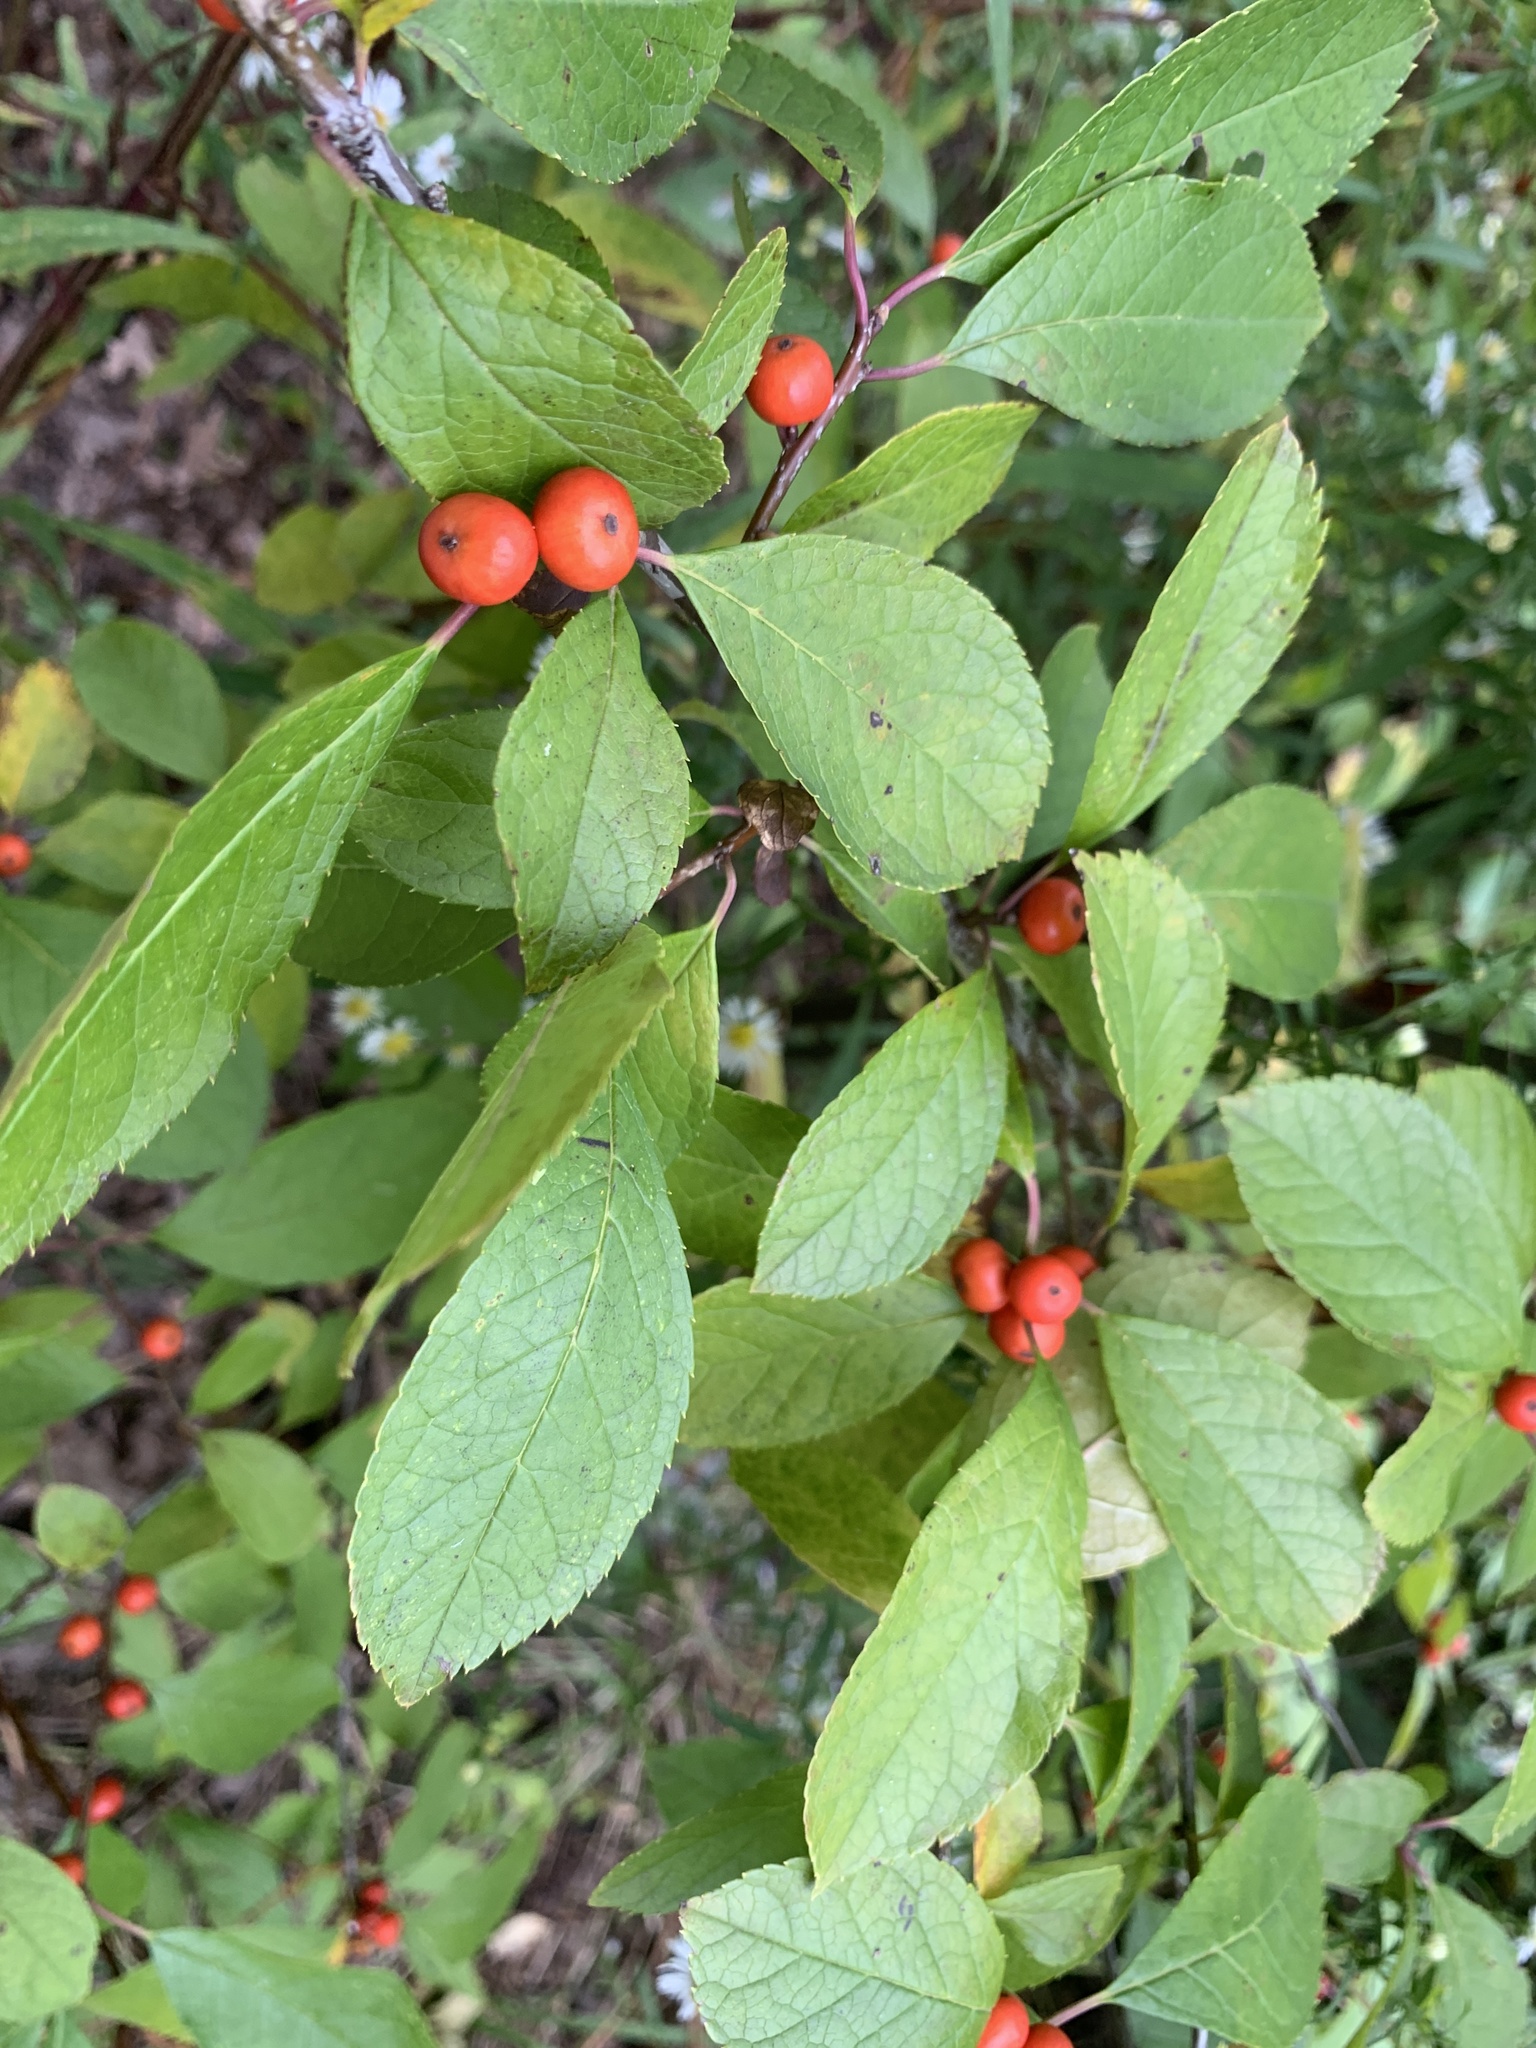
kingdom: Plantae
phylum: Tracheophyta
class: Magnoliopsida
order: Aquifoliales
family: Aquifoliaceae
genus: Ilex
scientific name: Ilex verticillata
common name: Virginia winterberry
